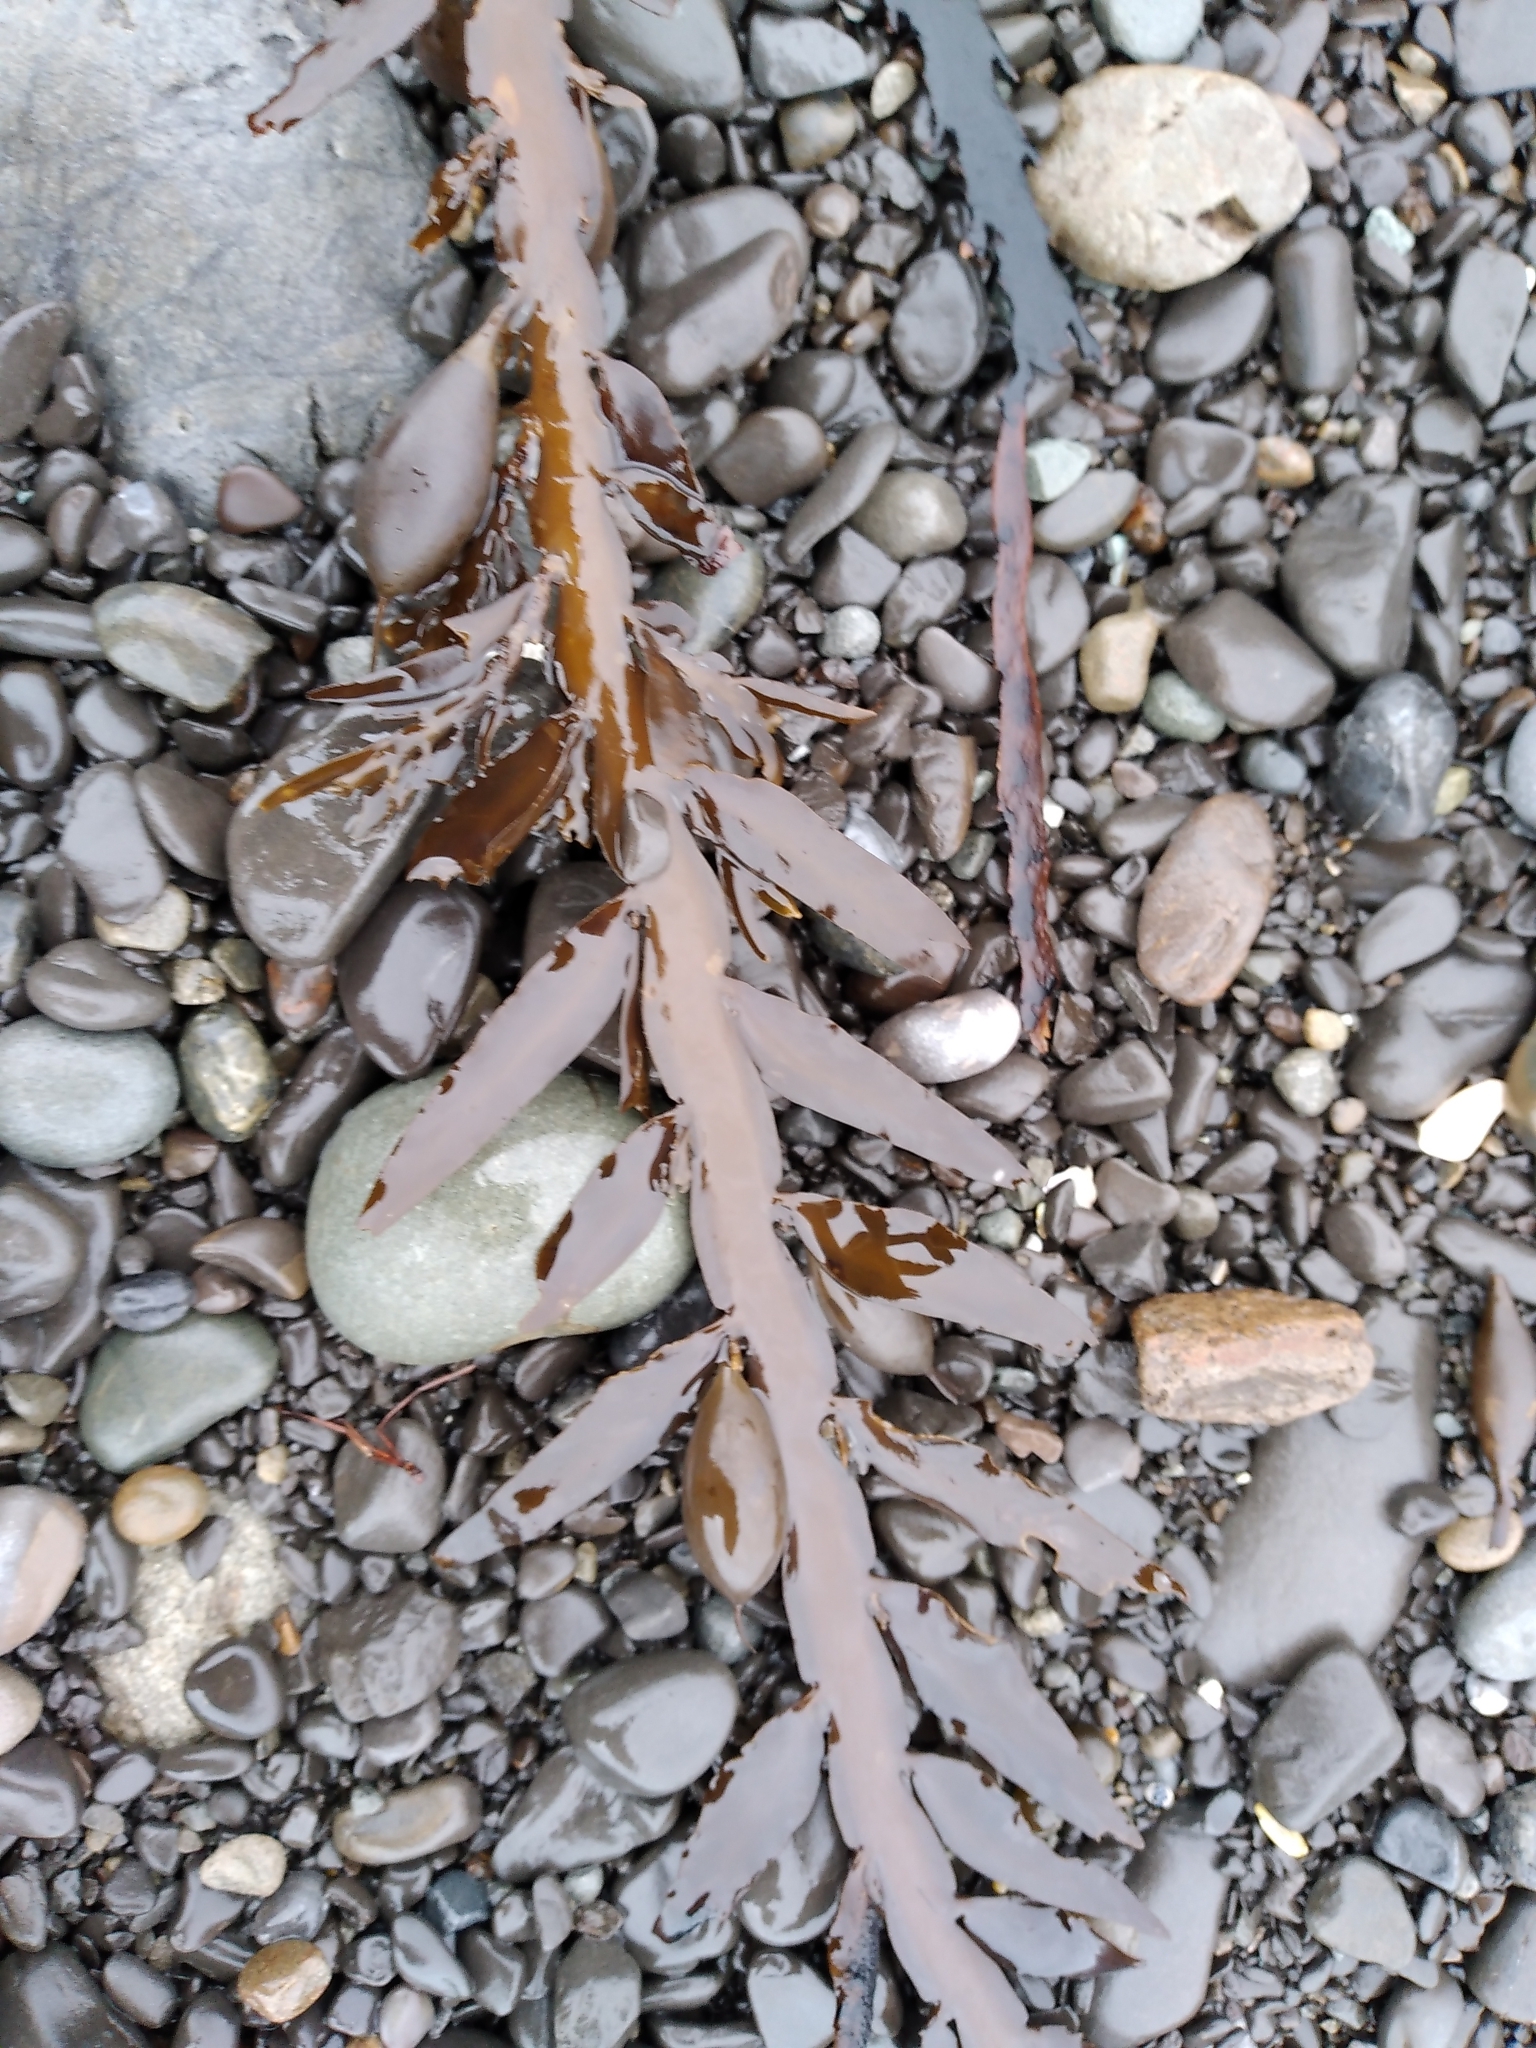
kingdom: Chromista
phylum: Ochrophyta
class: Phaeophyceae
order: Fucales
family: Sargassaceae
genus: Carpophyllum
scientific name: Carpophyllum maschalocarpum
